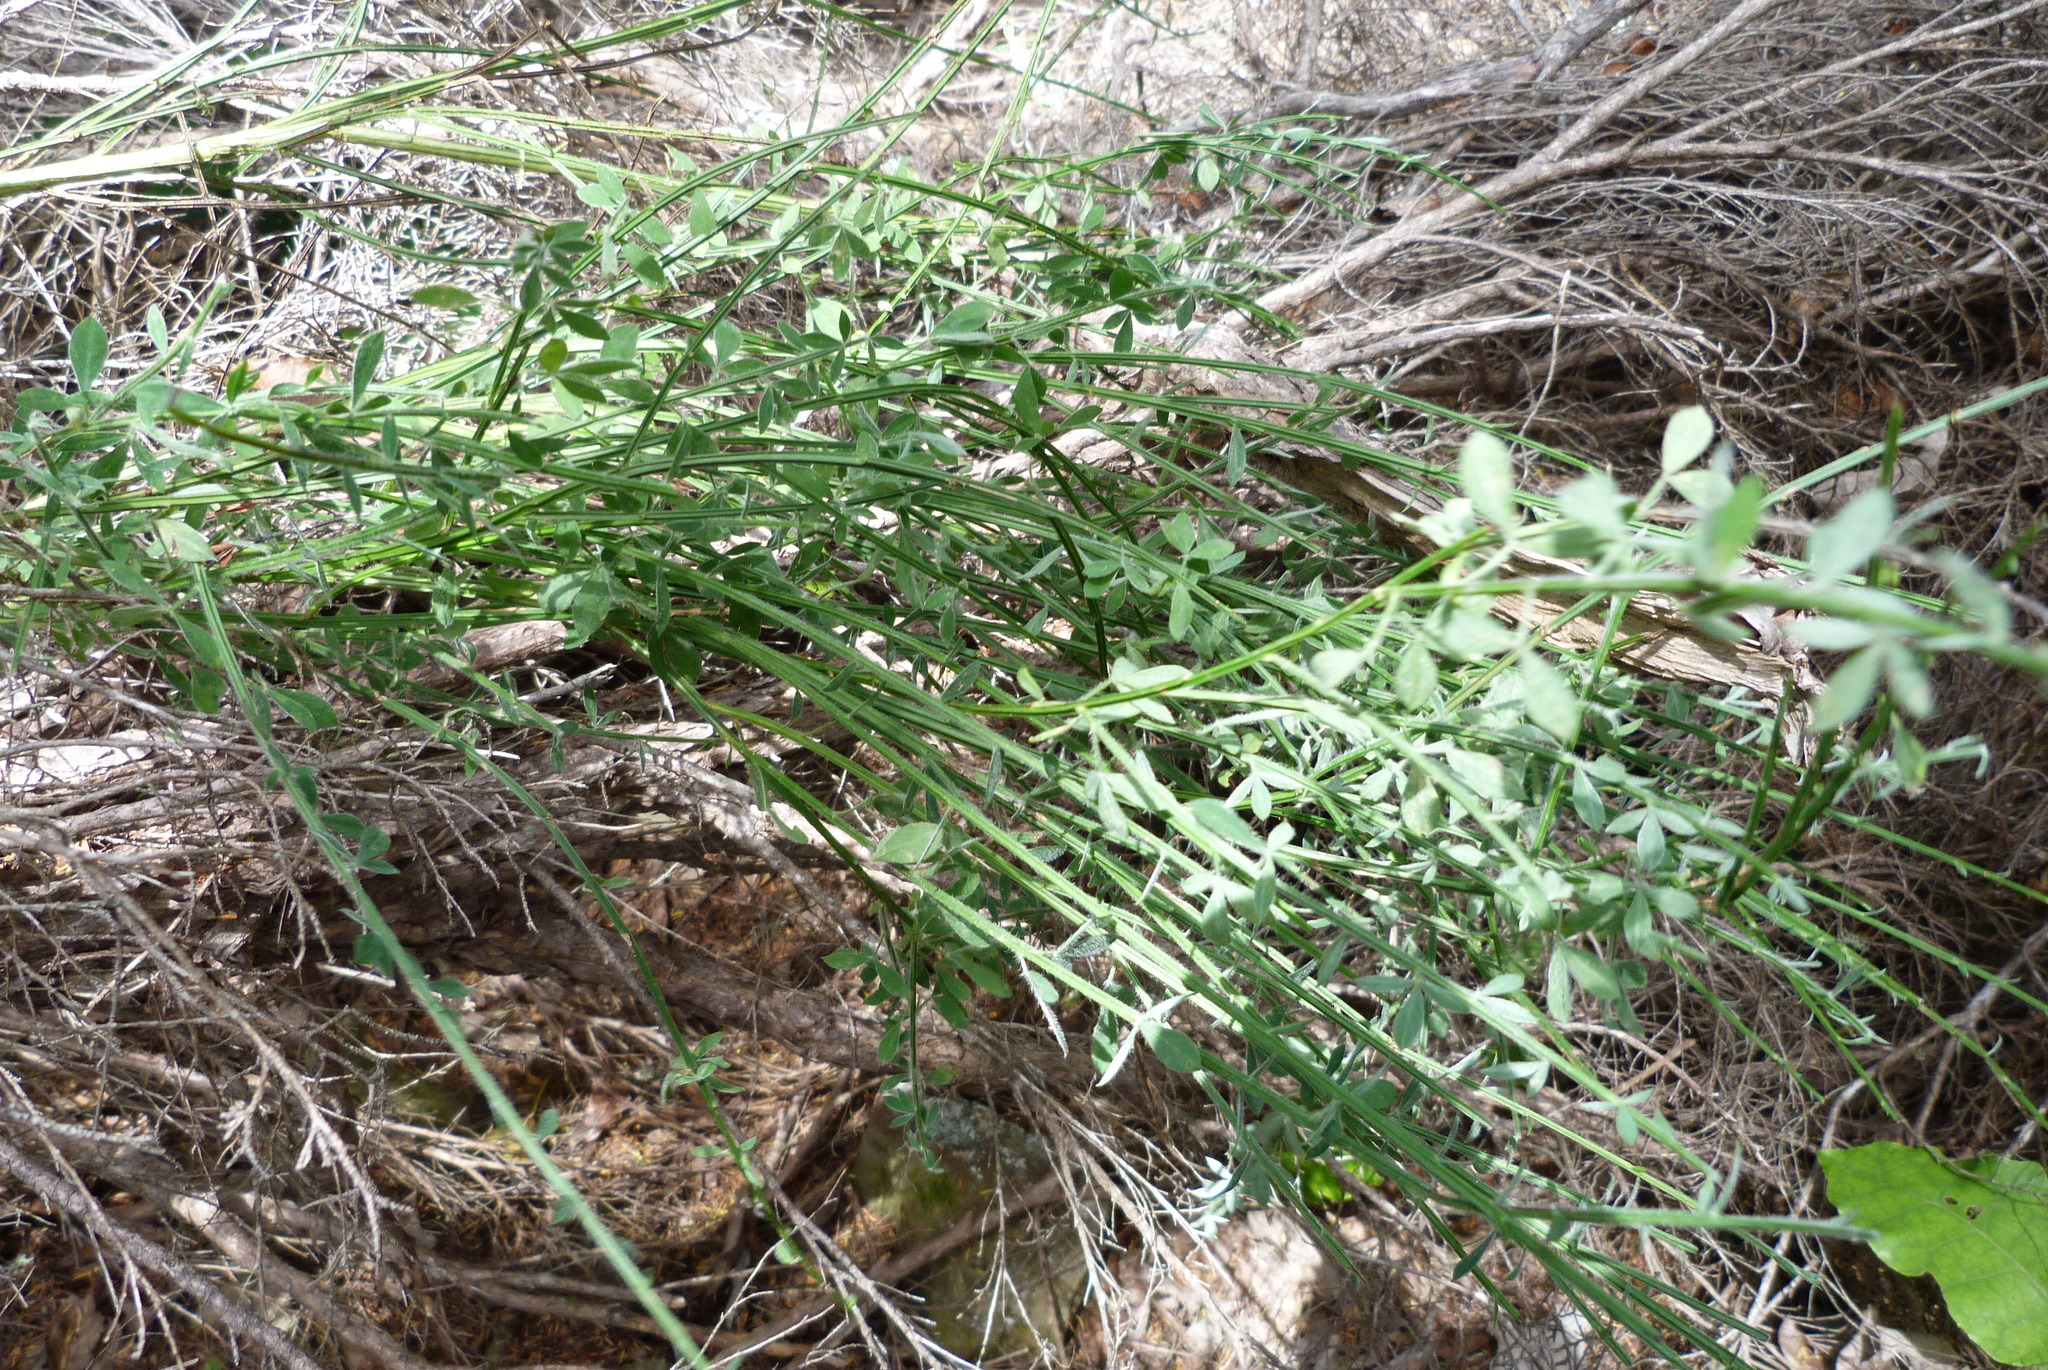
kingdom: Plantae
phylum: Tracheophyta
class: Magnoliopsida
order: Fabales
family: Fabaceae
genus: Cytisus
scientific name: Cytisus scoparius
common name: Scotch broom
